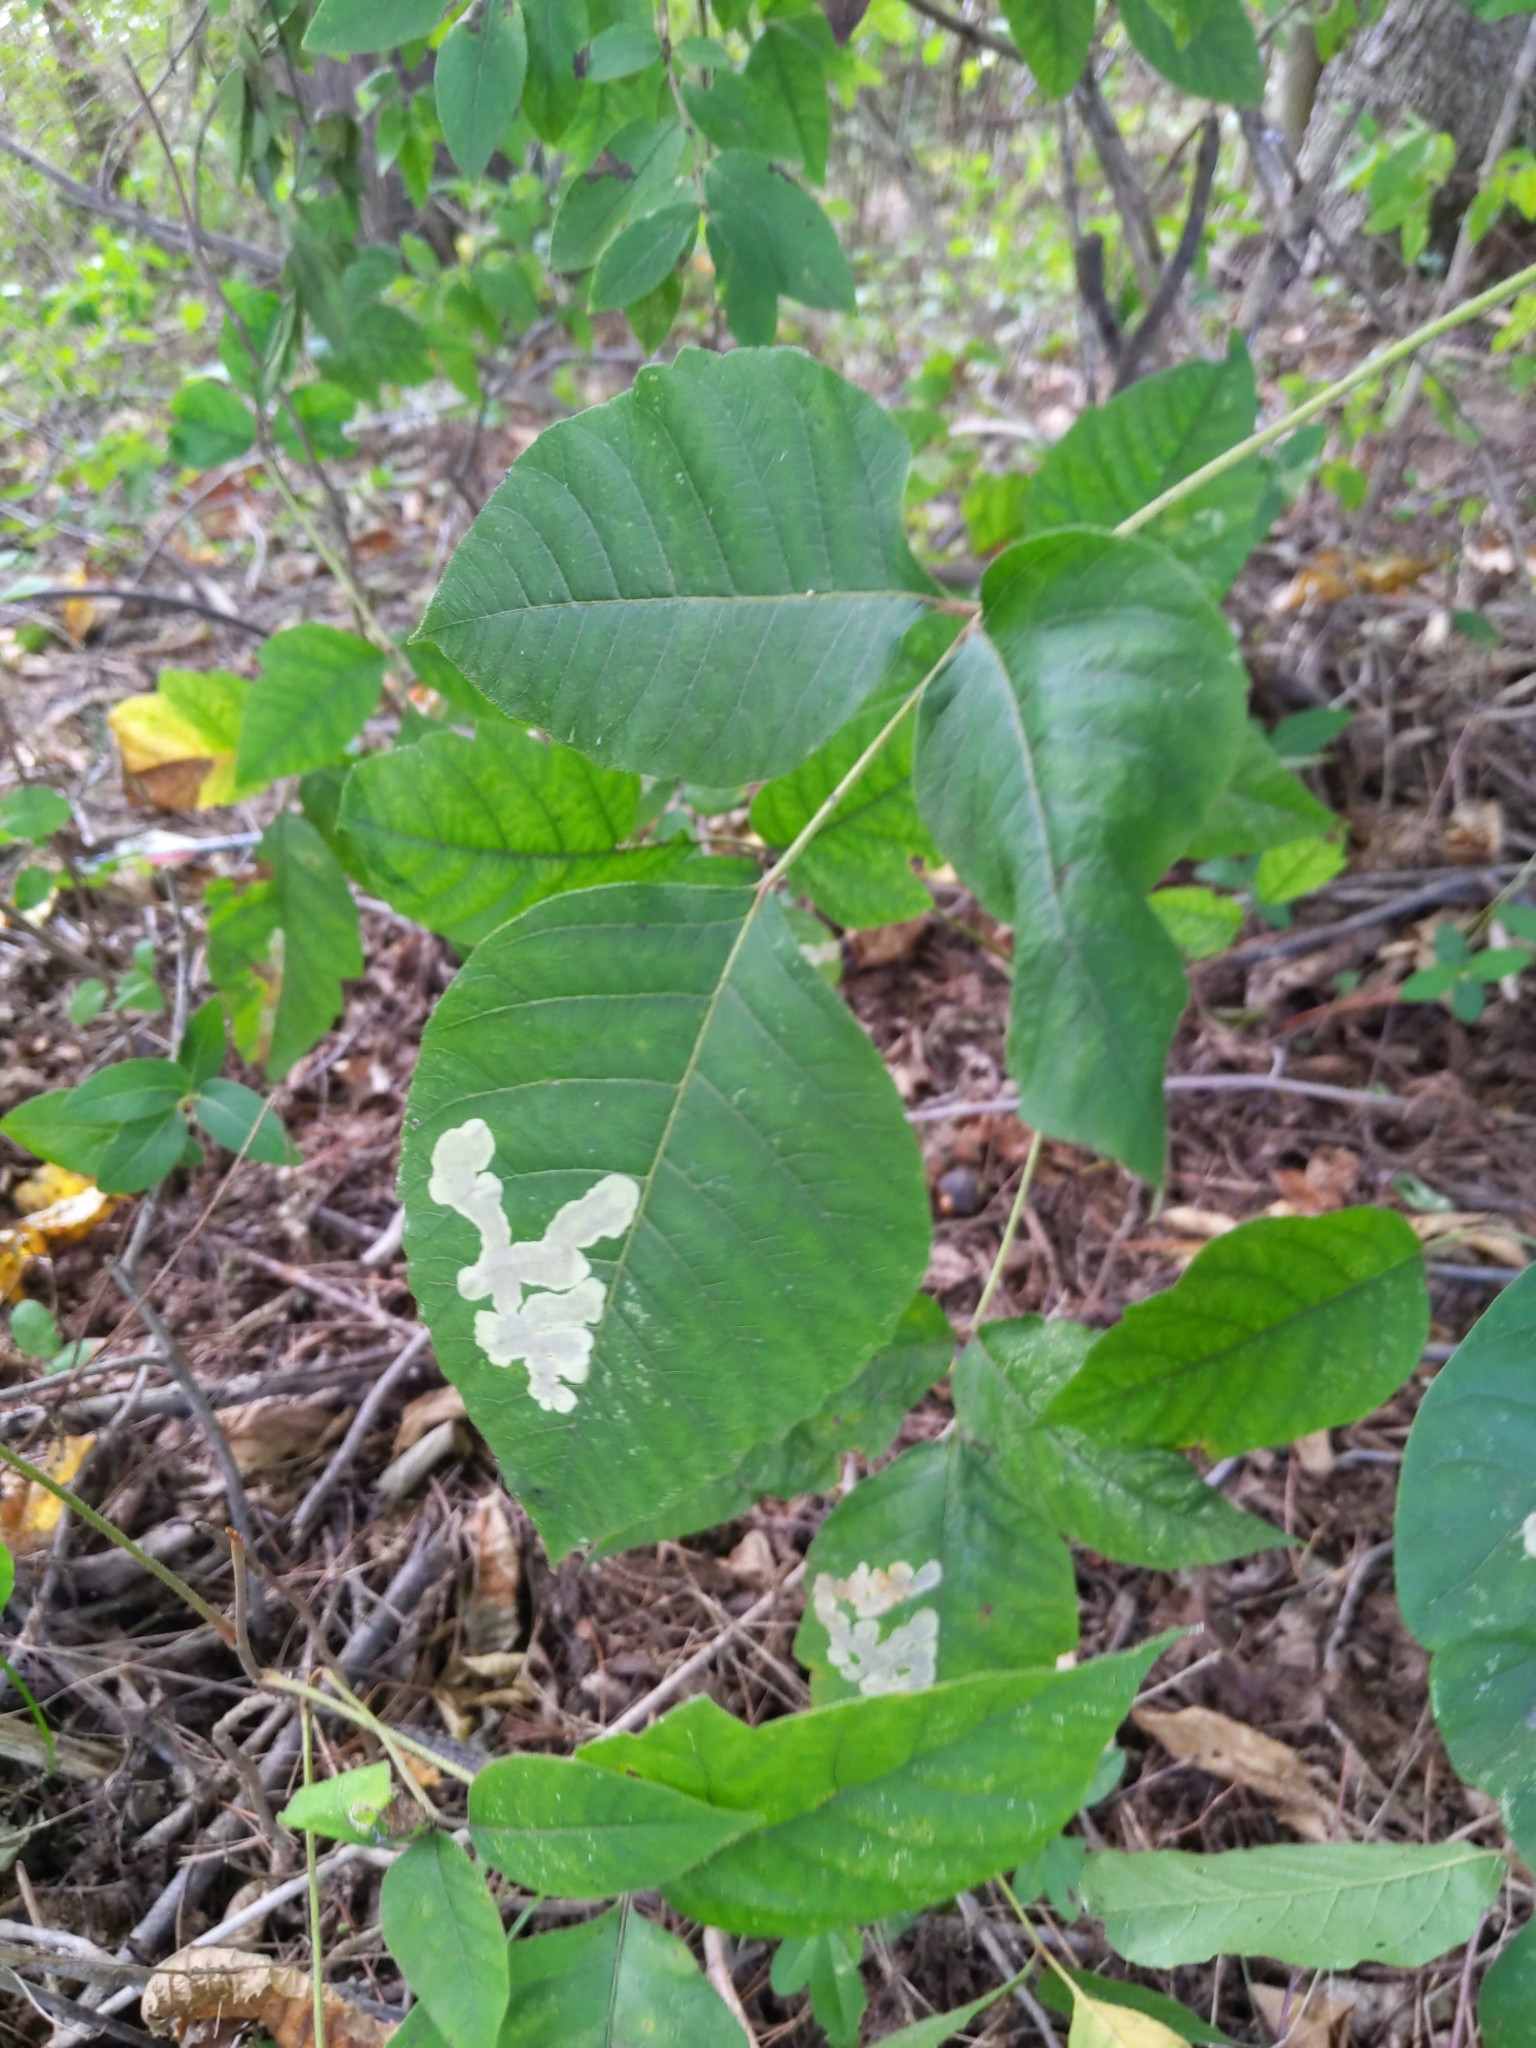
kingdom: Animalia
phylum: Arthropoda
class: Insecta
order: Lepidoptera
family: Gracillariidae
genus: Cameraria
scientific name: Cameraria guttifinitella
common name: Poison ivy leaf-miner moth
